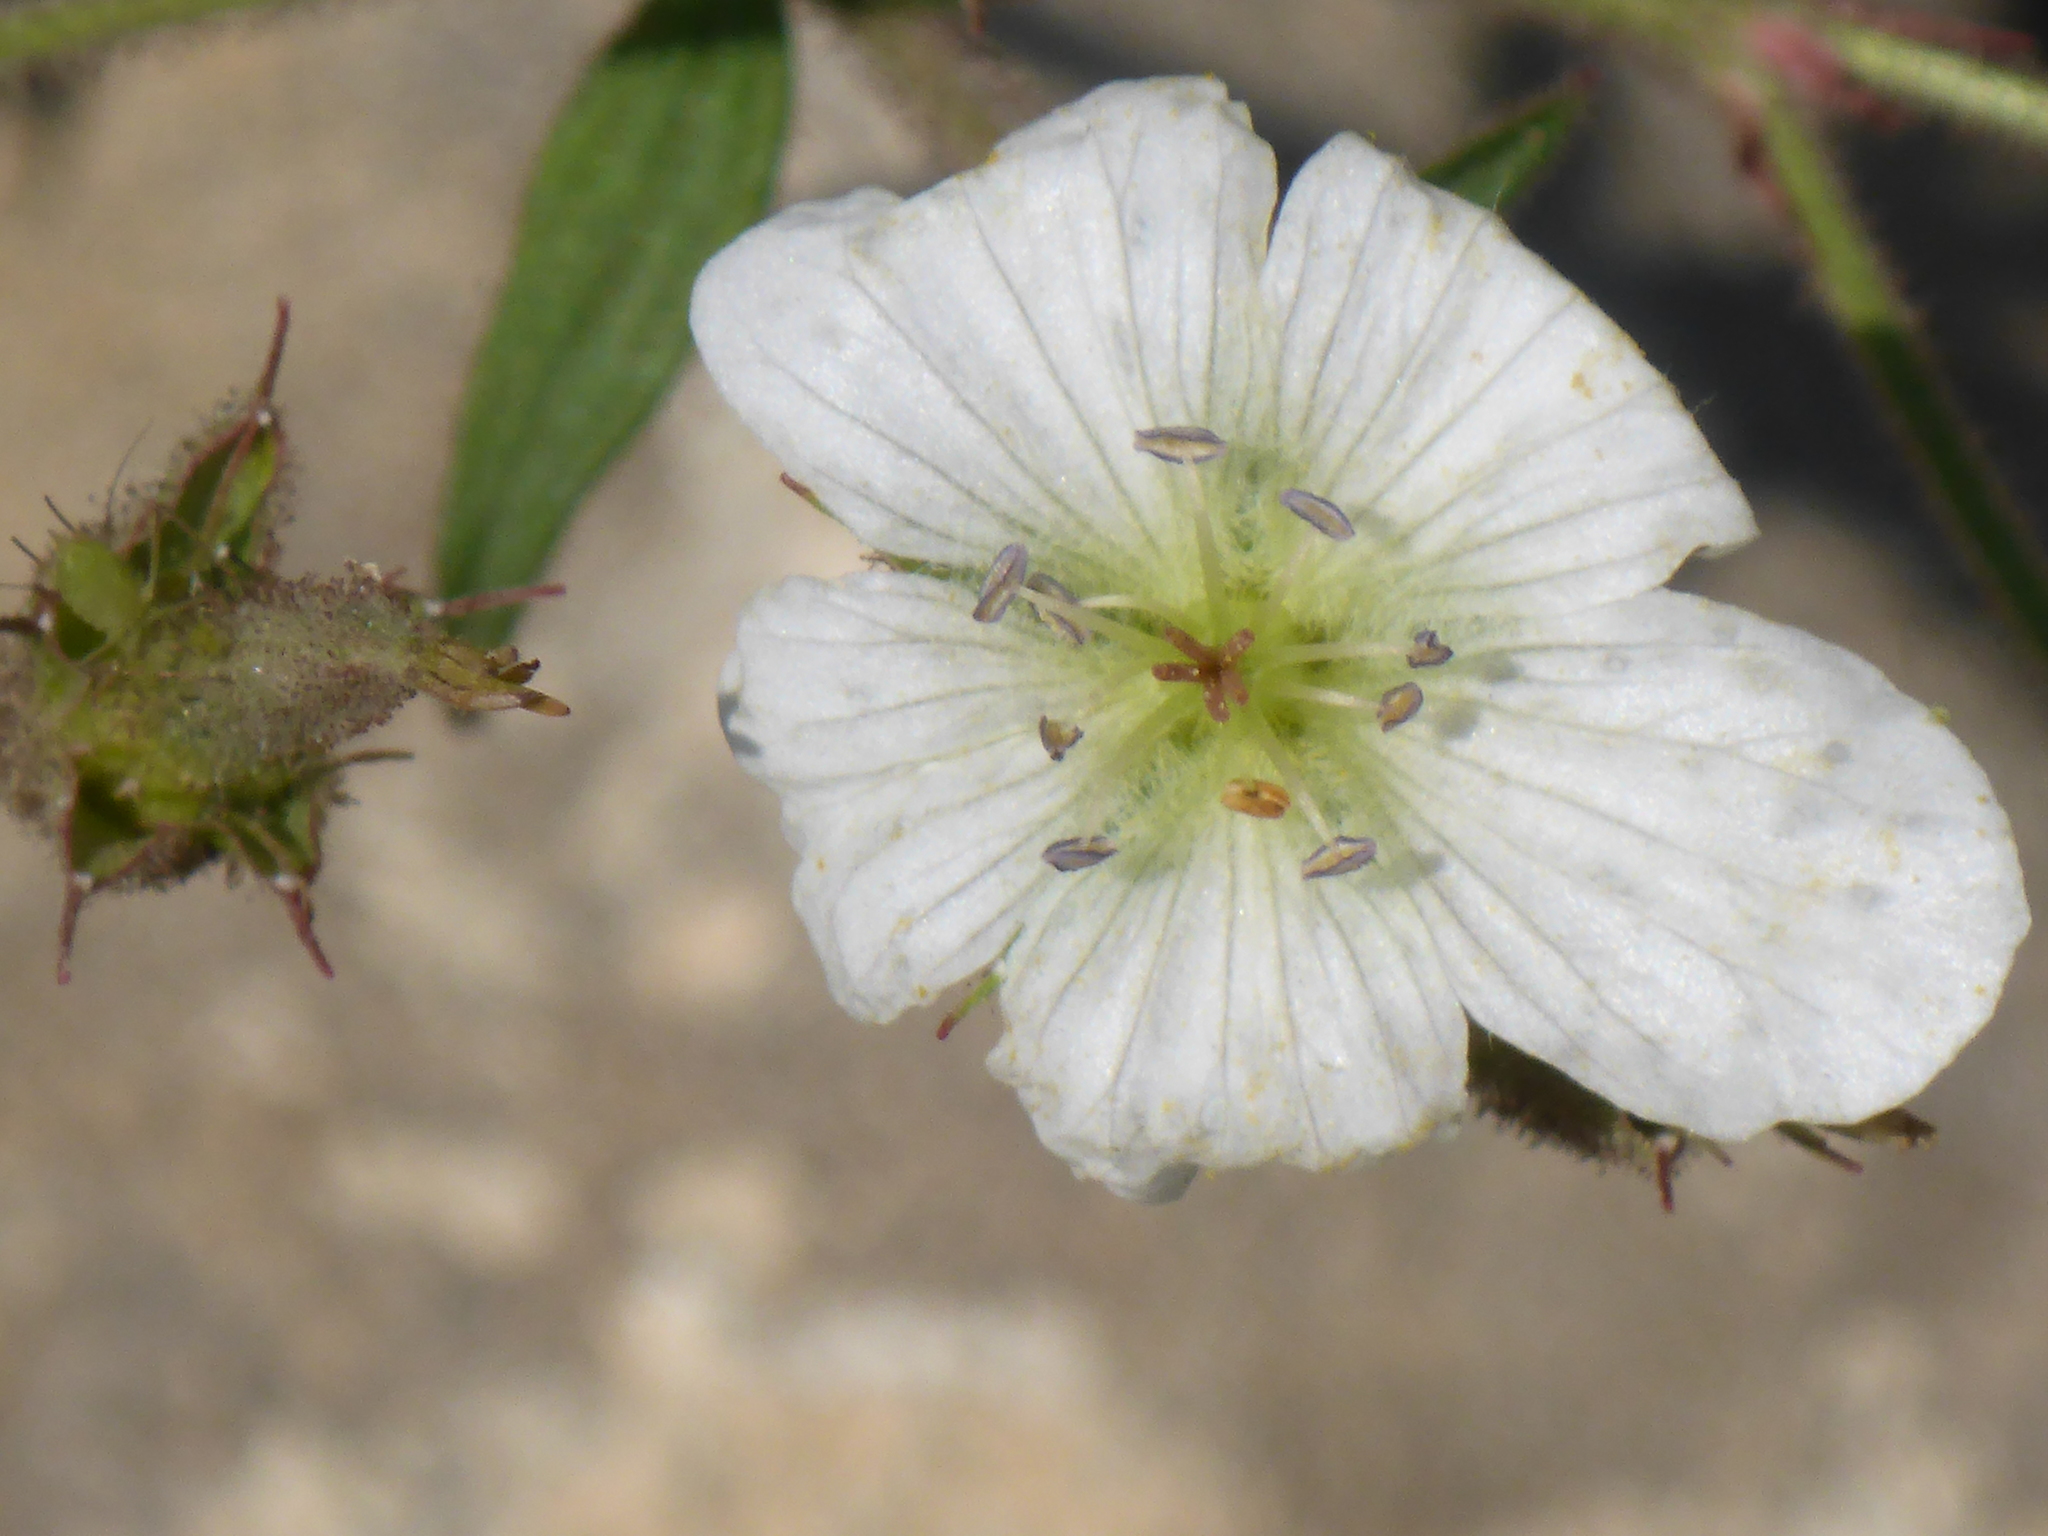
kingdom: Plantae
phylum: Tracheophyta
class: Magnoliopsida
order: Geraniales
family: Geraniaceae
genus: Geranium
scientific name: Geranium richardsonii
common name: Richardson's crane's-bill
